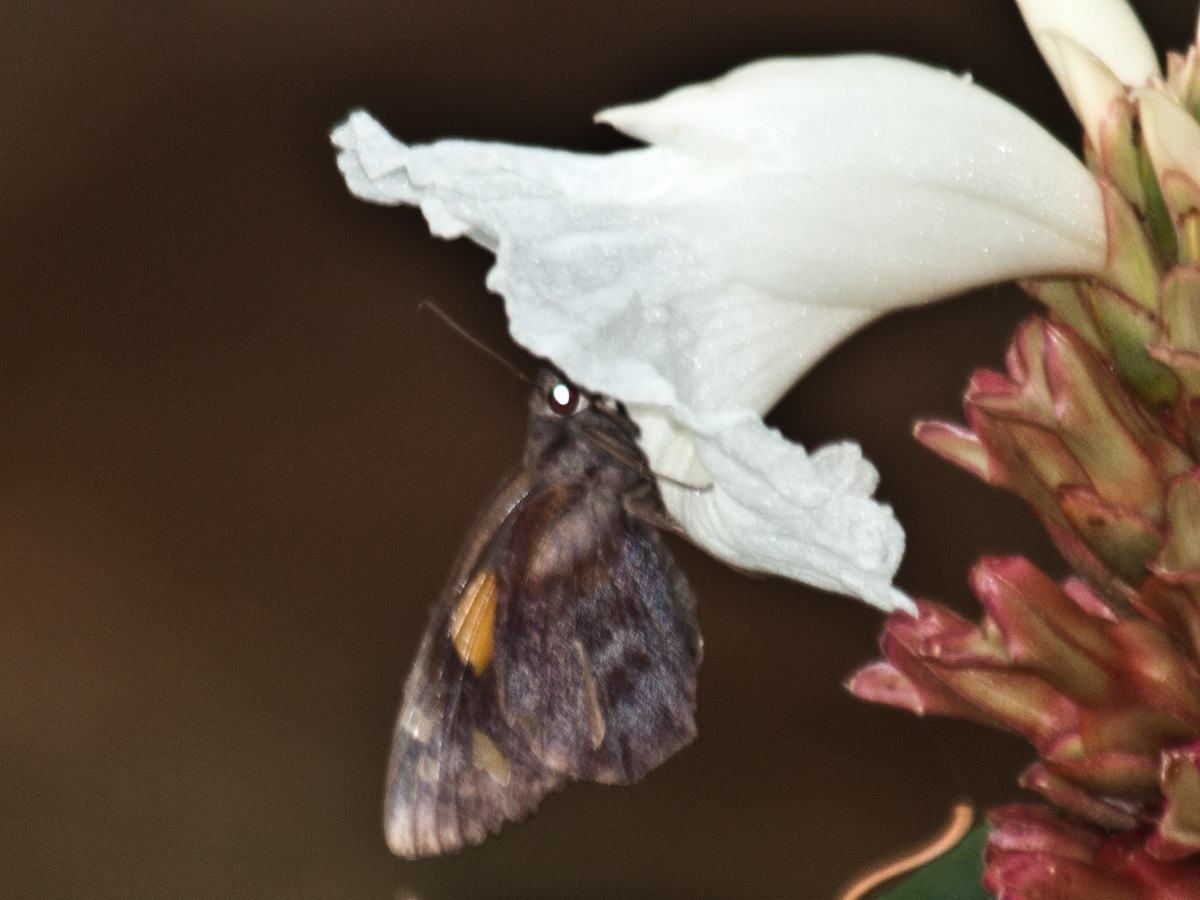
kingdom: Plantae
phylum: Tracheophyta
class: Liliopsida
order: Zingiberales
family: Costaceae
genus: Hellenia
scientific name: Hellenia speciosa
